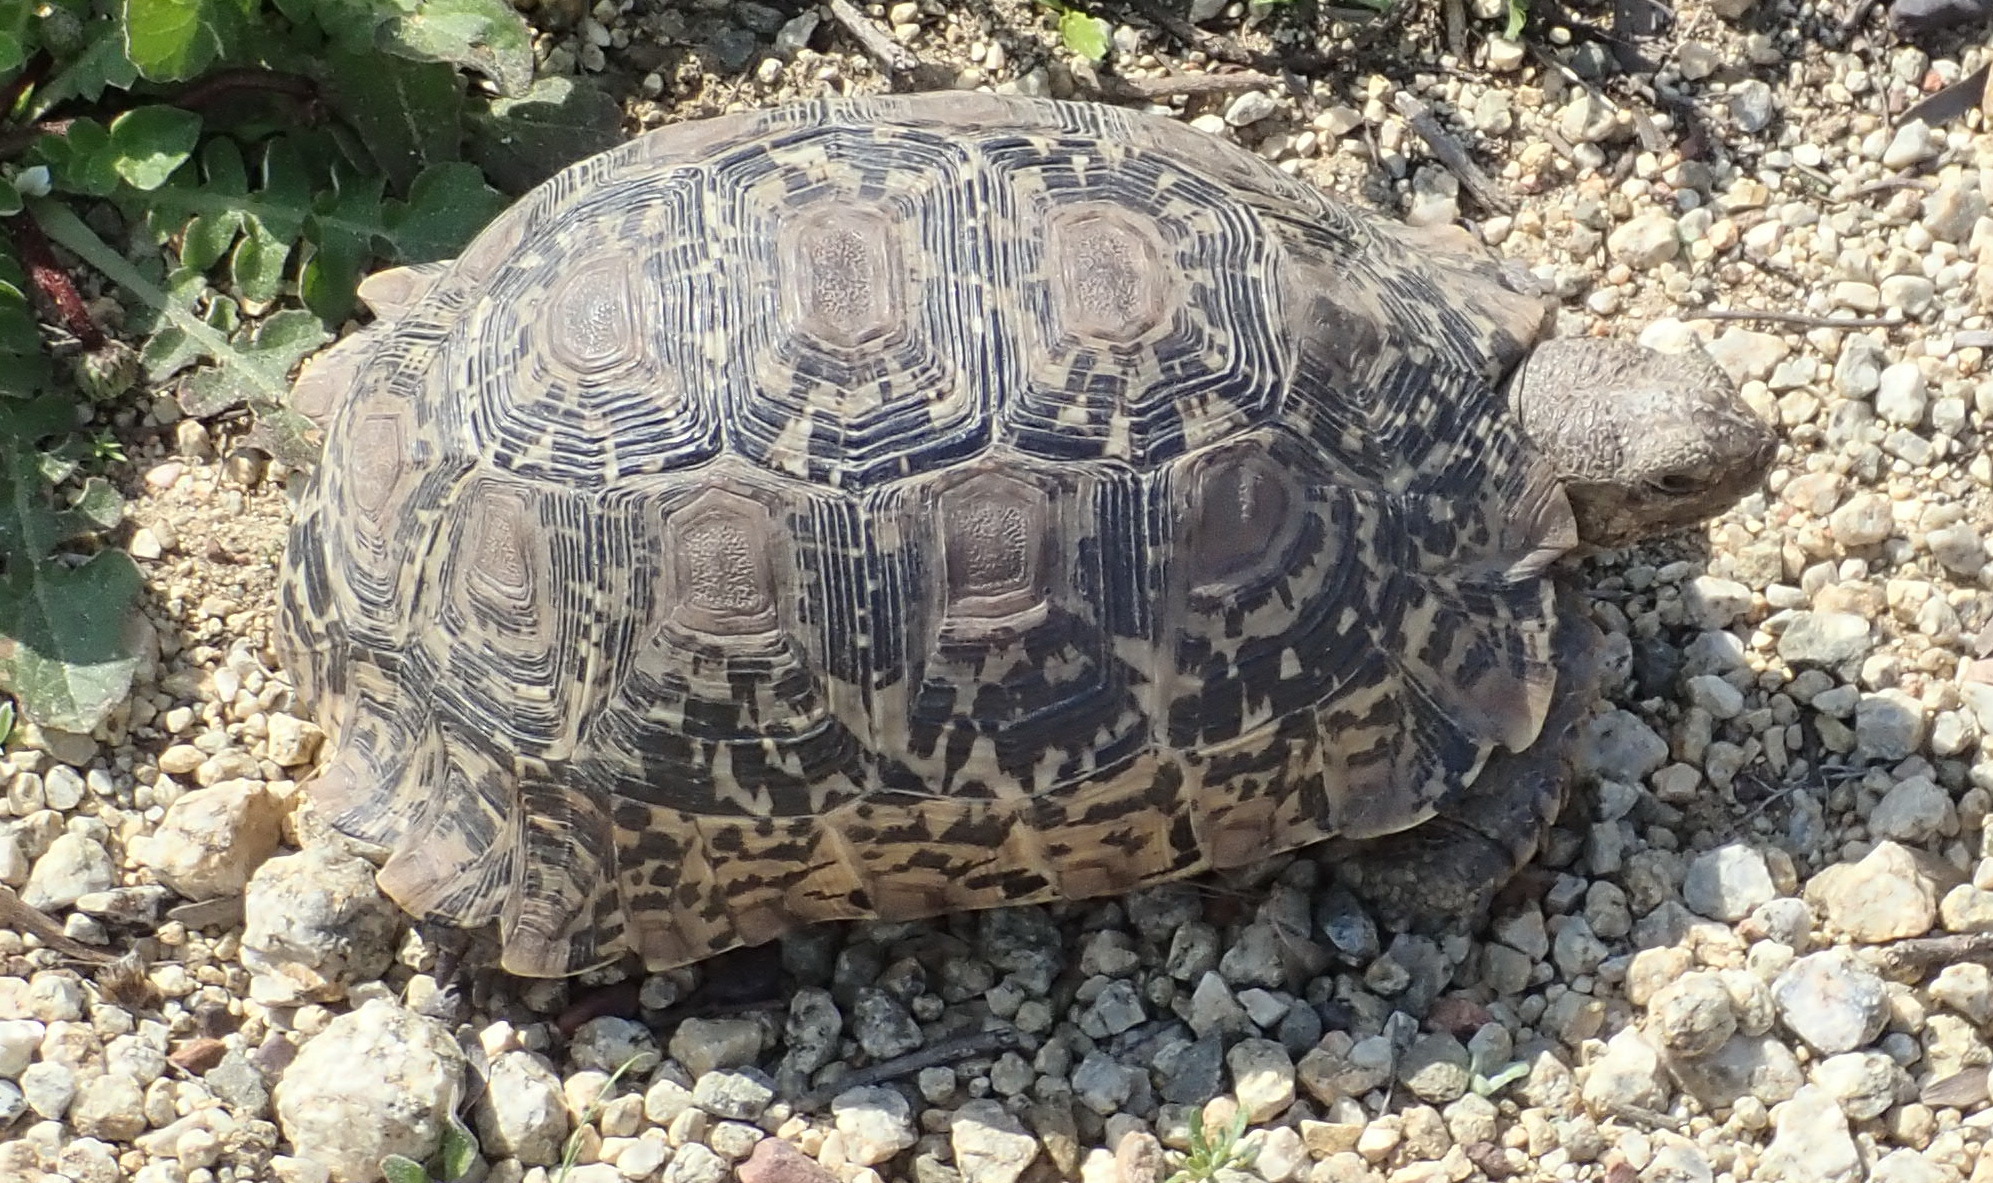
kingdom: Animalia
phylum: Chordata
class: Testudines
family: Testudinidae
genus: Stigmochelys
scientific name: Stigmochelys pardalis
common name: Leopard tortoise
